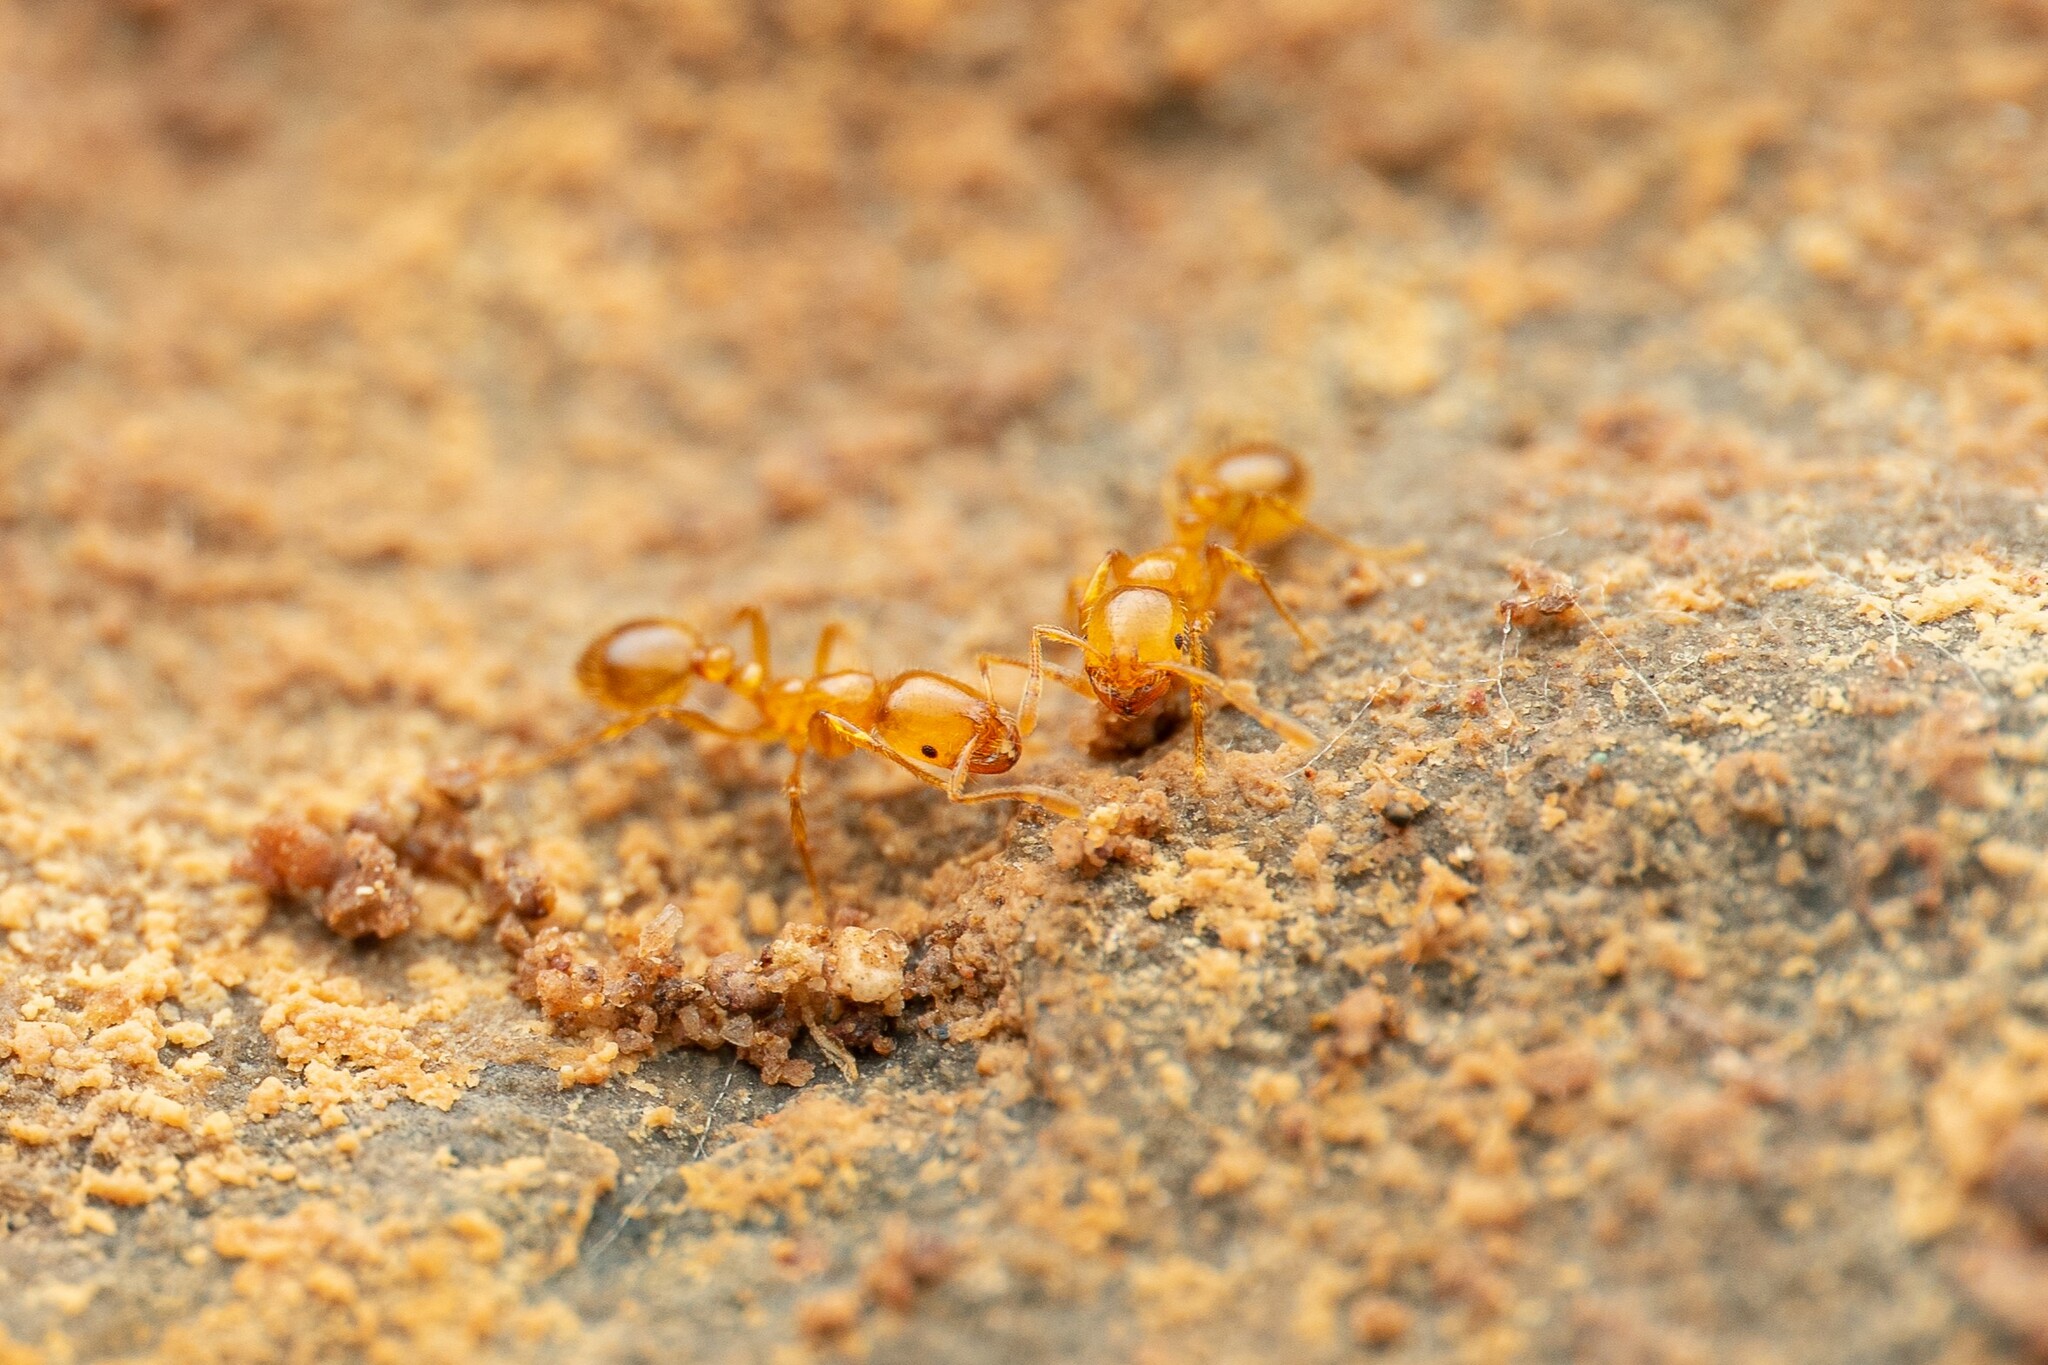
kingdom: Animalia
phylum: Arthropoda
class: Insecta
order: Hymenoptera
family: Formicidae
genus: Solenopsis
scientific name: Solenopsis aurea
